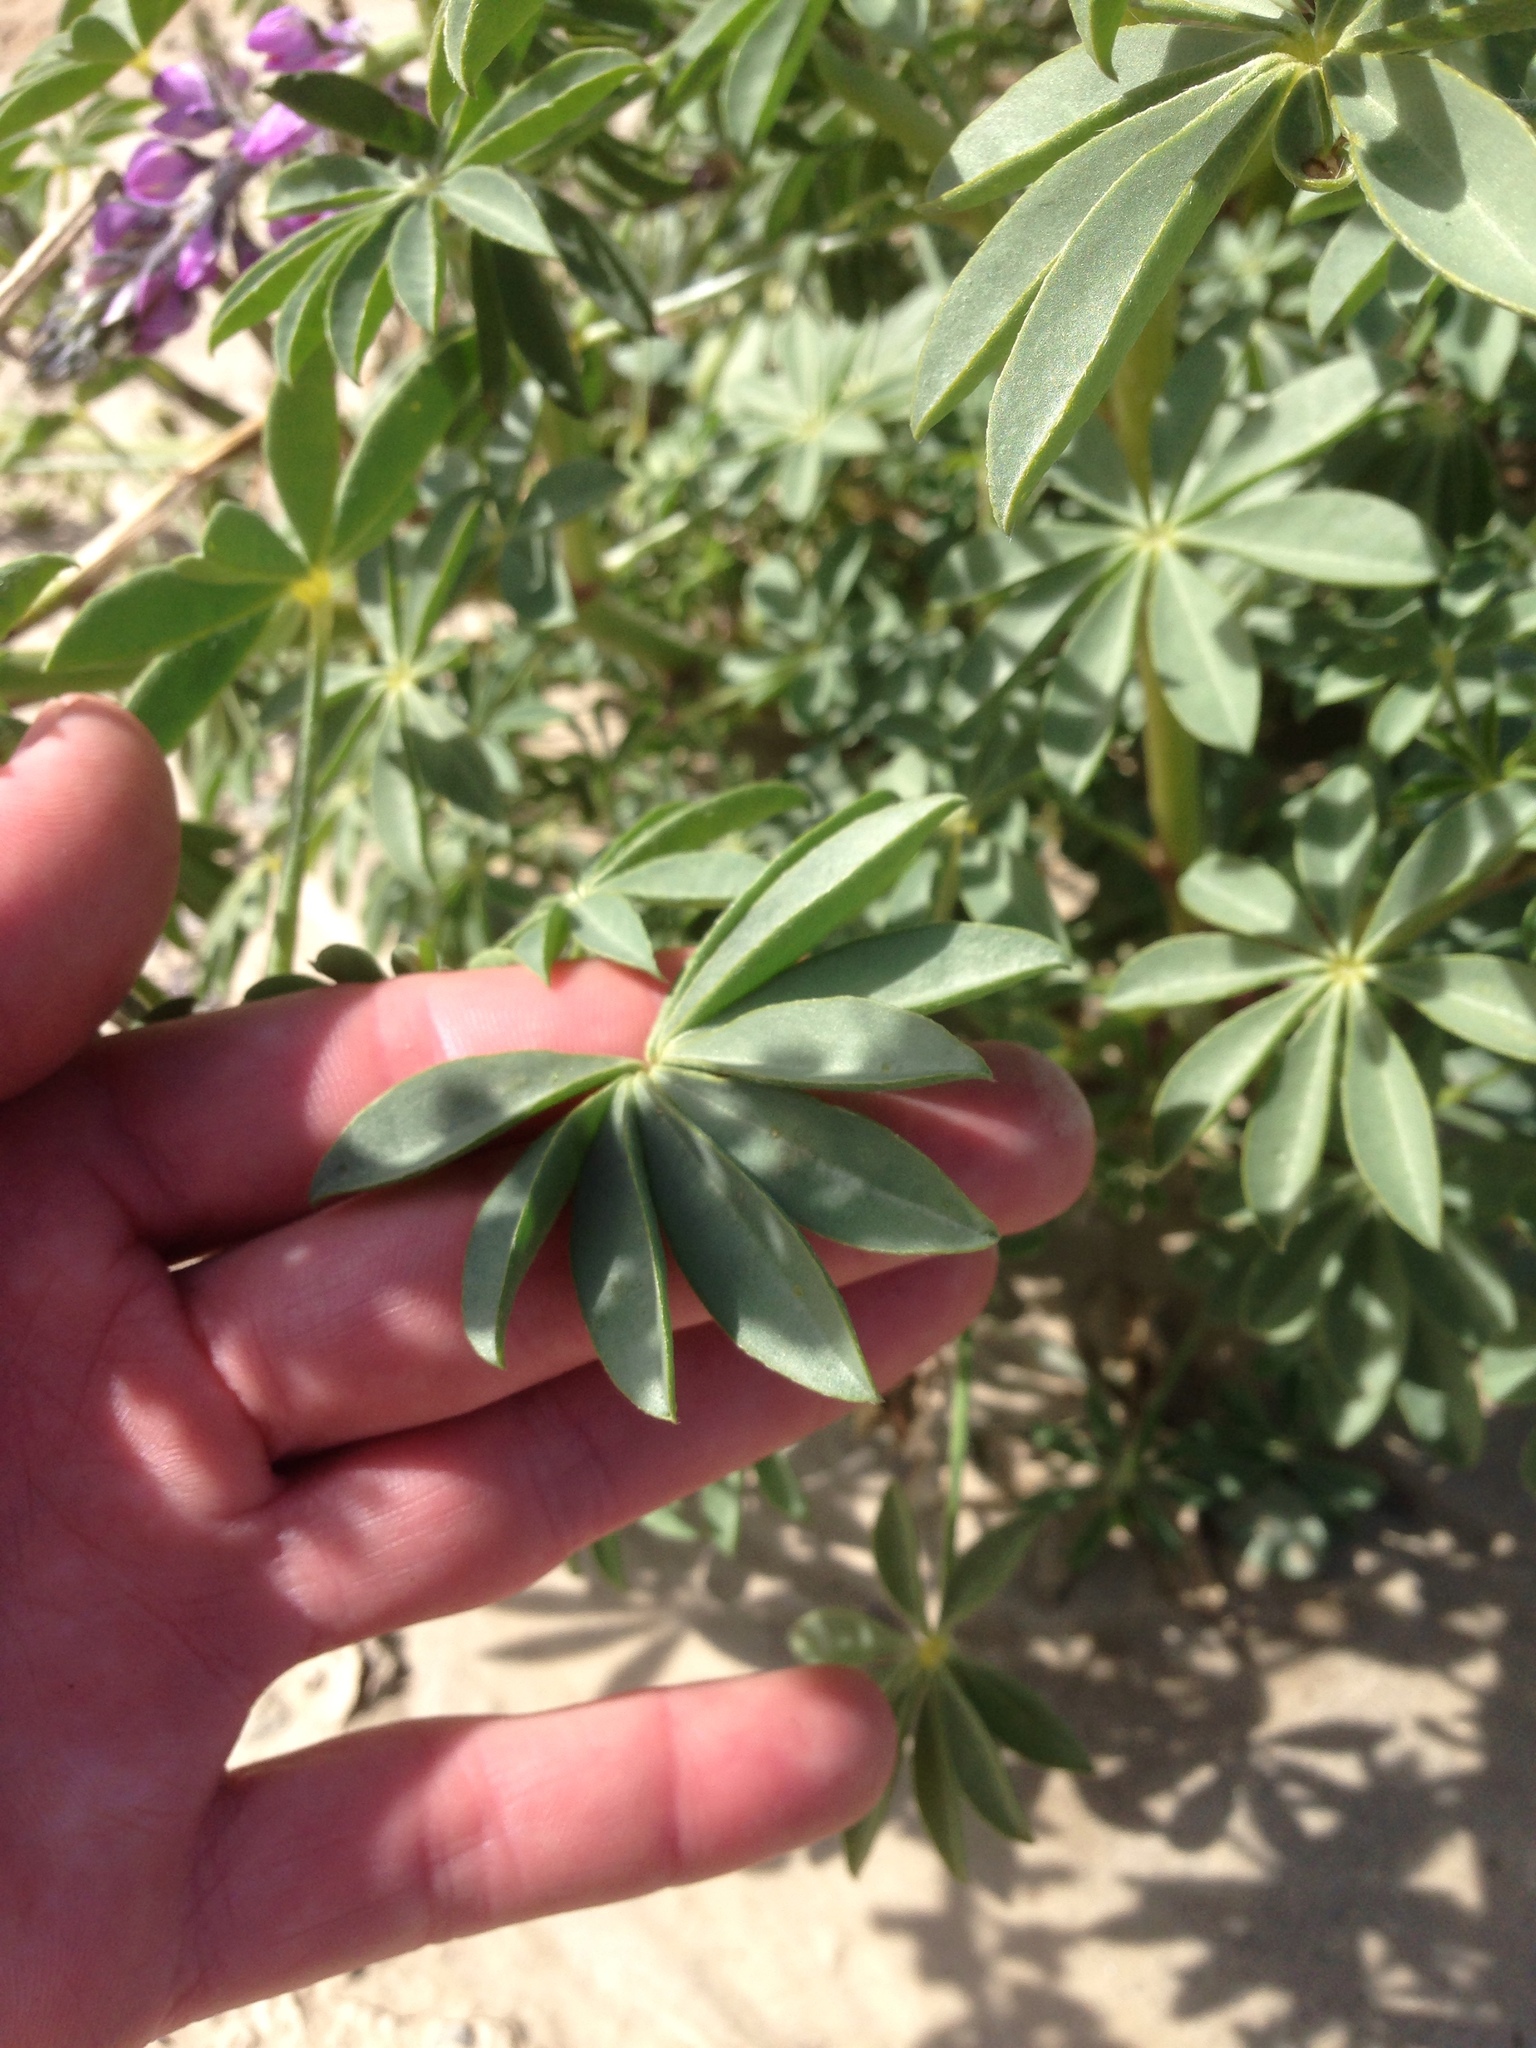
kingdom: Plantae
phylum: Tracheophyta
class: Magnoliopsida
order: Fabales
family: Fabaceae
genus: Lupinus
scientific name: Lupinus arizonicus
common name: Arizona lupine
